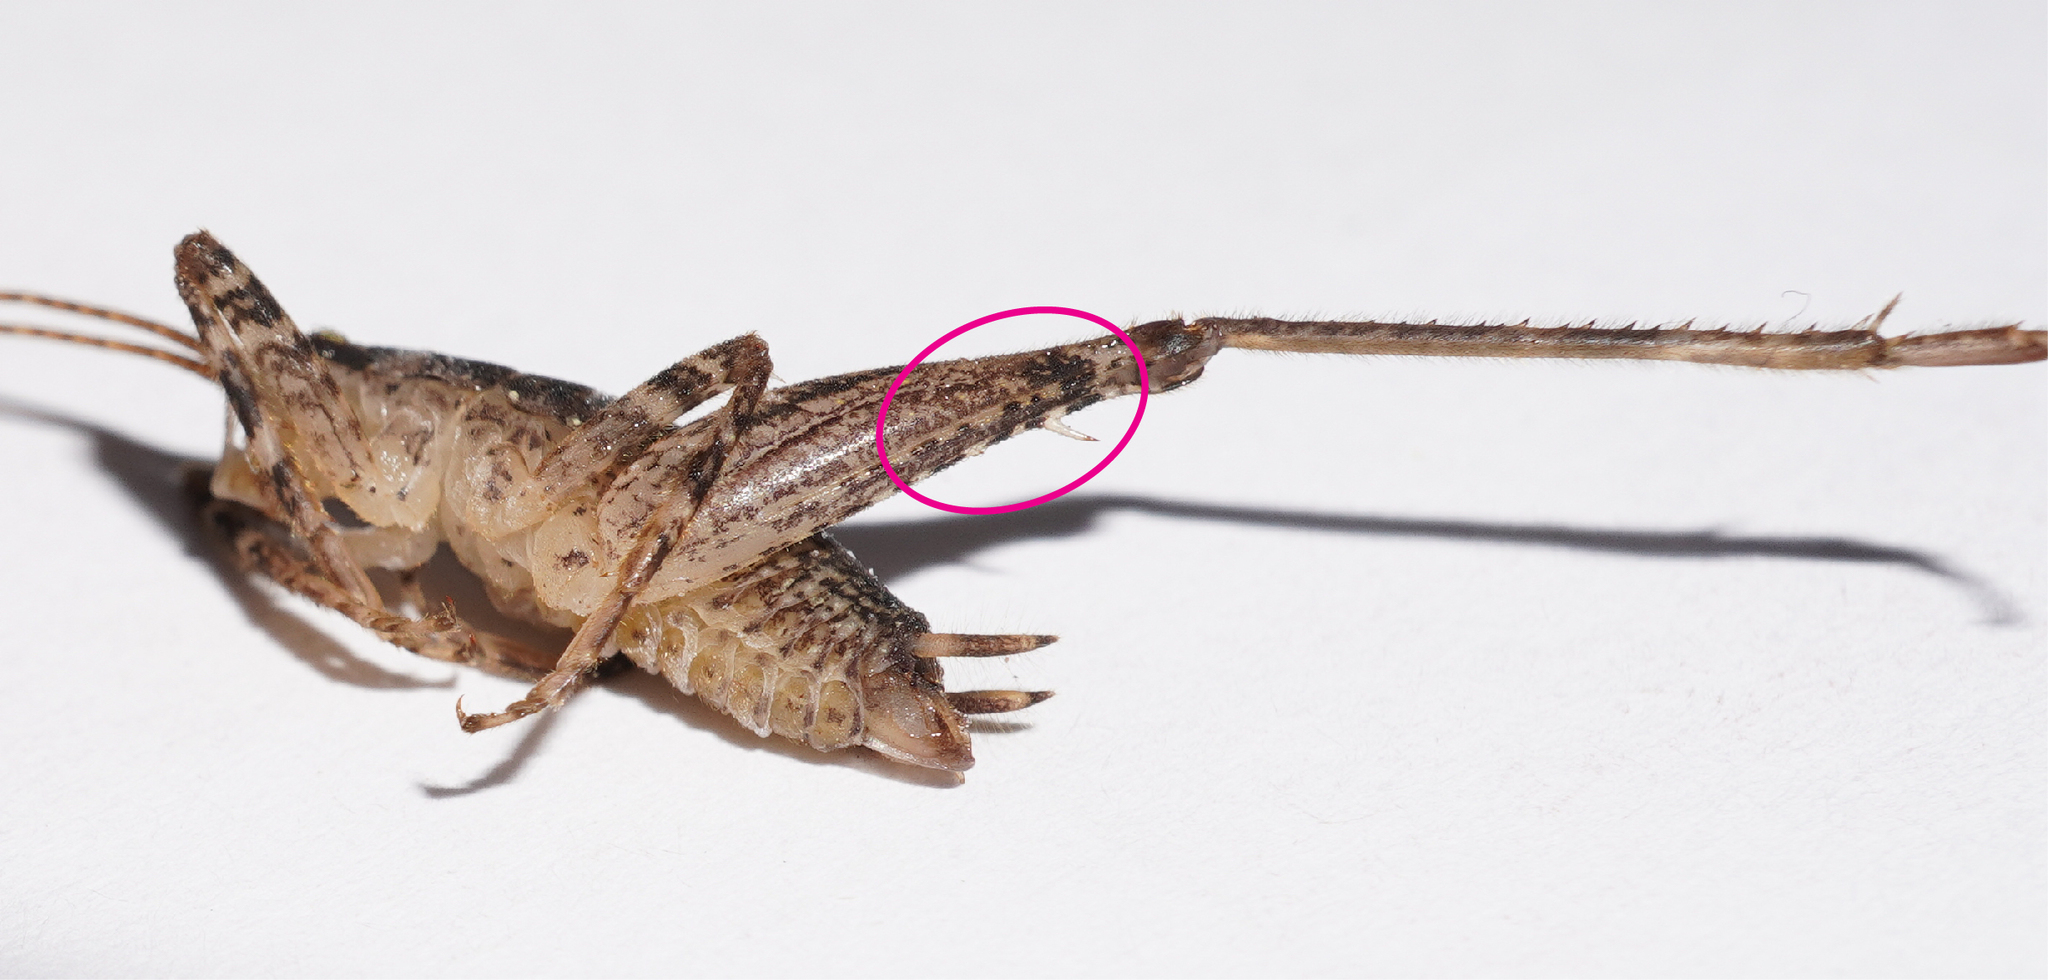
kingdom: Animalia
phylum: Arthropoda
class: Insecta
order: Orthoptera
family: Rhaphidophoridae
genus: Isoplectron
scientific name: Isoplectron armatum
